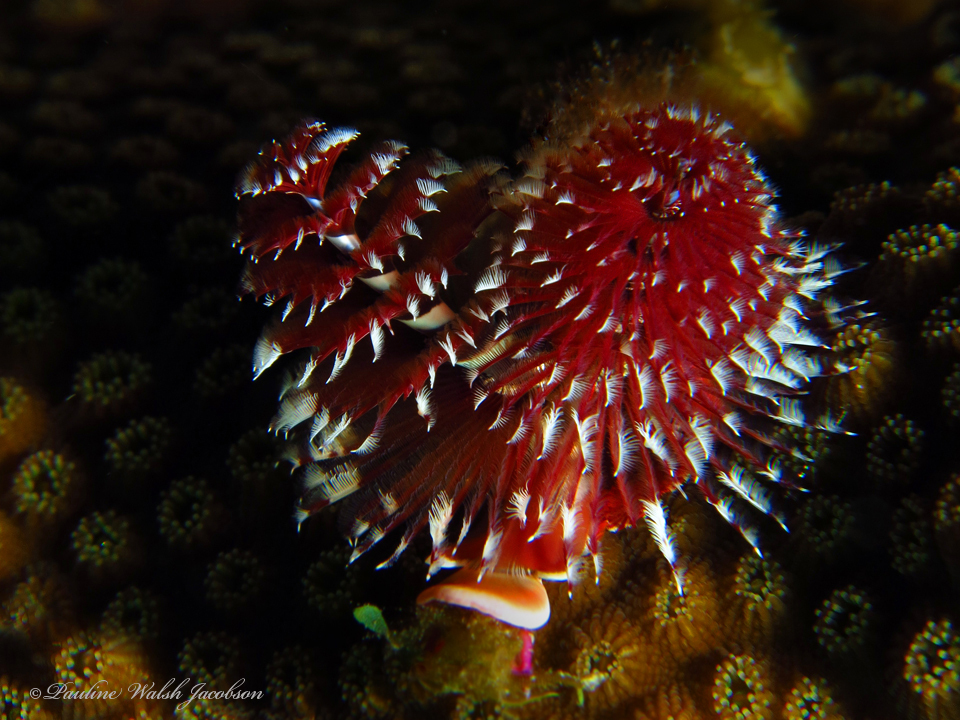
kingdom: Animalia
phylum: Annelida
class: Polychaeta
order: Sabellida
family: Serpulidae
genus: Spirobranchus
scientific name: Spirobranchus giganteus
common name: Christmas tree worm
